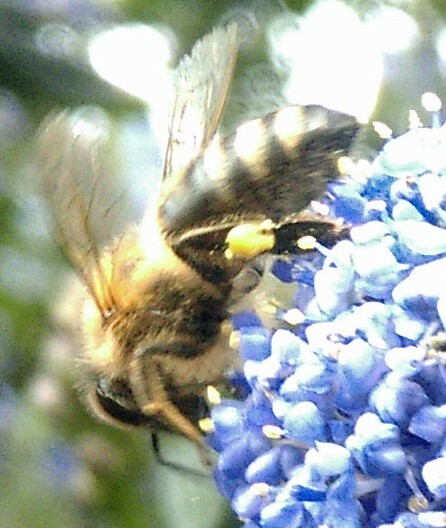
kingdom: Animalia
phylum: Arthropoda
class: Insecta
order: Hymenoptera
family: Apidae
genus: Apis
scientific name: Apis mellifera
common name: Honey bee
